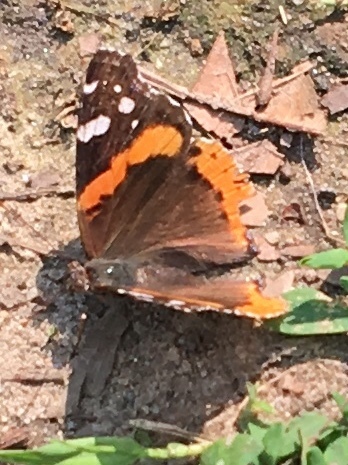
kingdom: Animalia
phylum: Arthropoda
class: Insecta
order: Lepidoptera
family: Nymphalidae
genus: Vanessa
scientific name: Vanessa atalanta
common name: Red admiral
